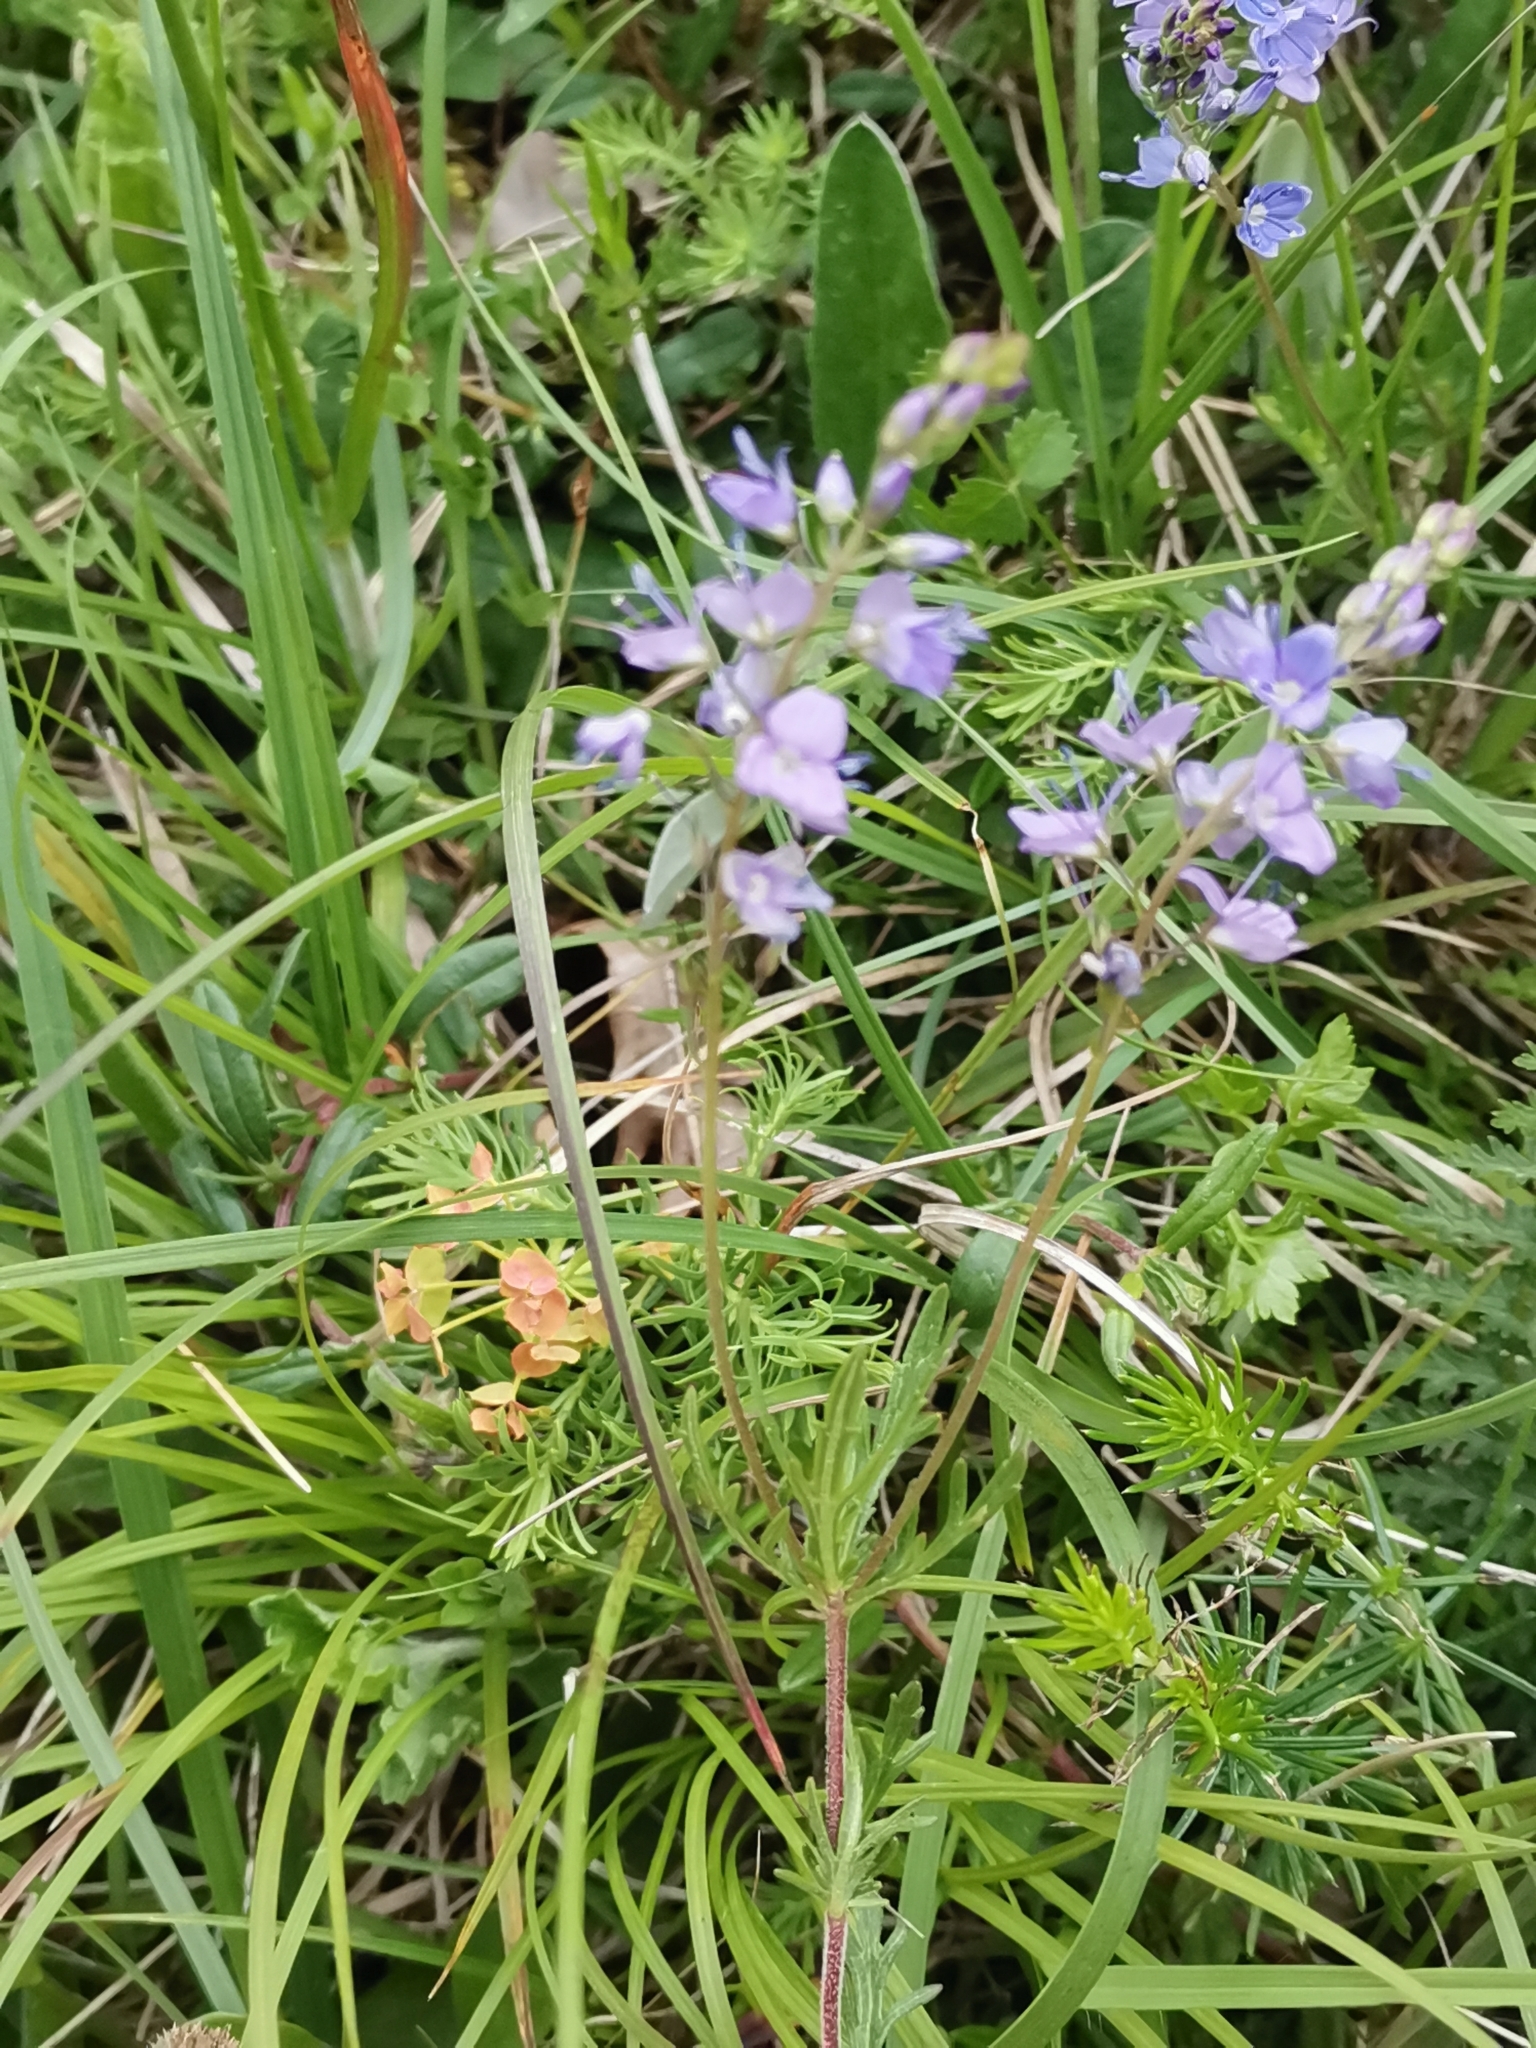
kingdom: Plantae
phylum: Tracheophyta
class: Magnoliopsida
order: Lamiales
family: Plantaginaceae
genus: Veronica
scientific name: Veronica austriaca
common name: Large speedwell
